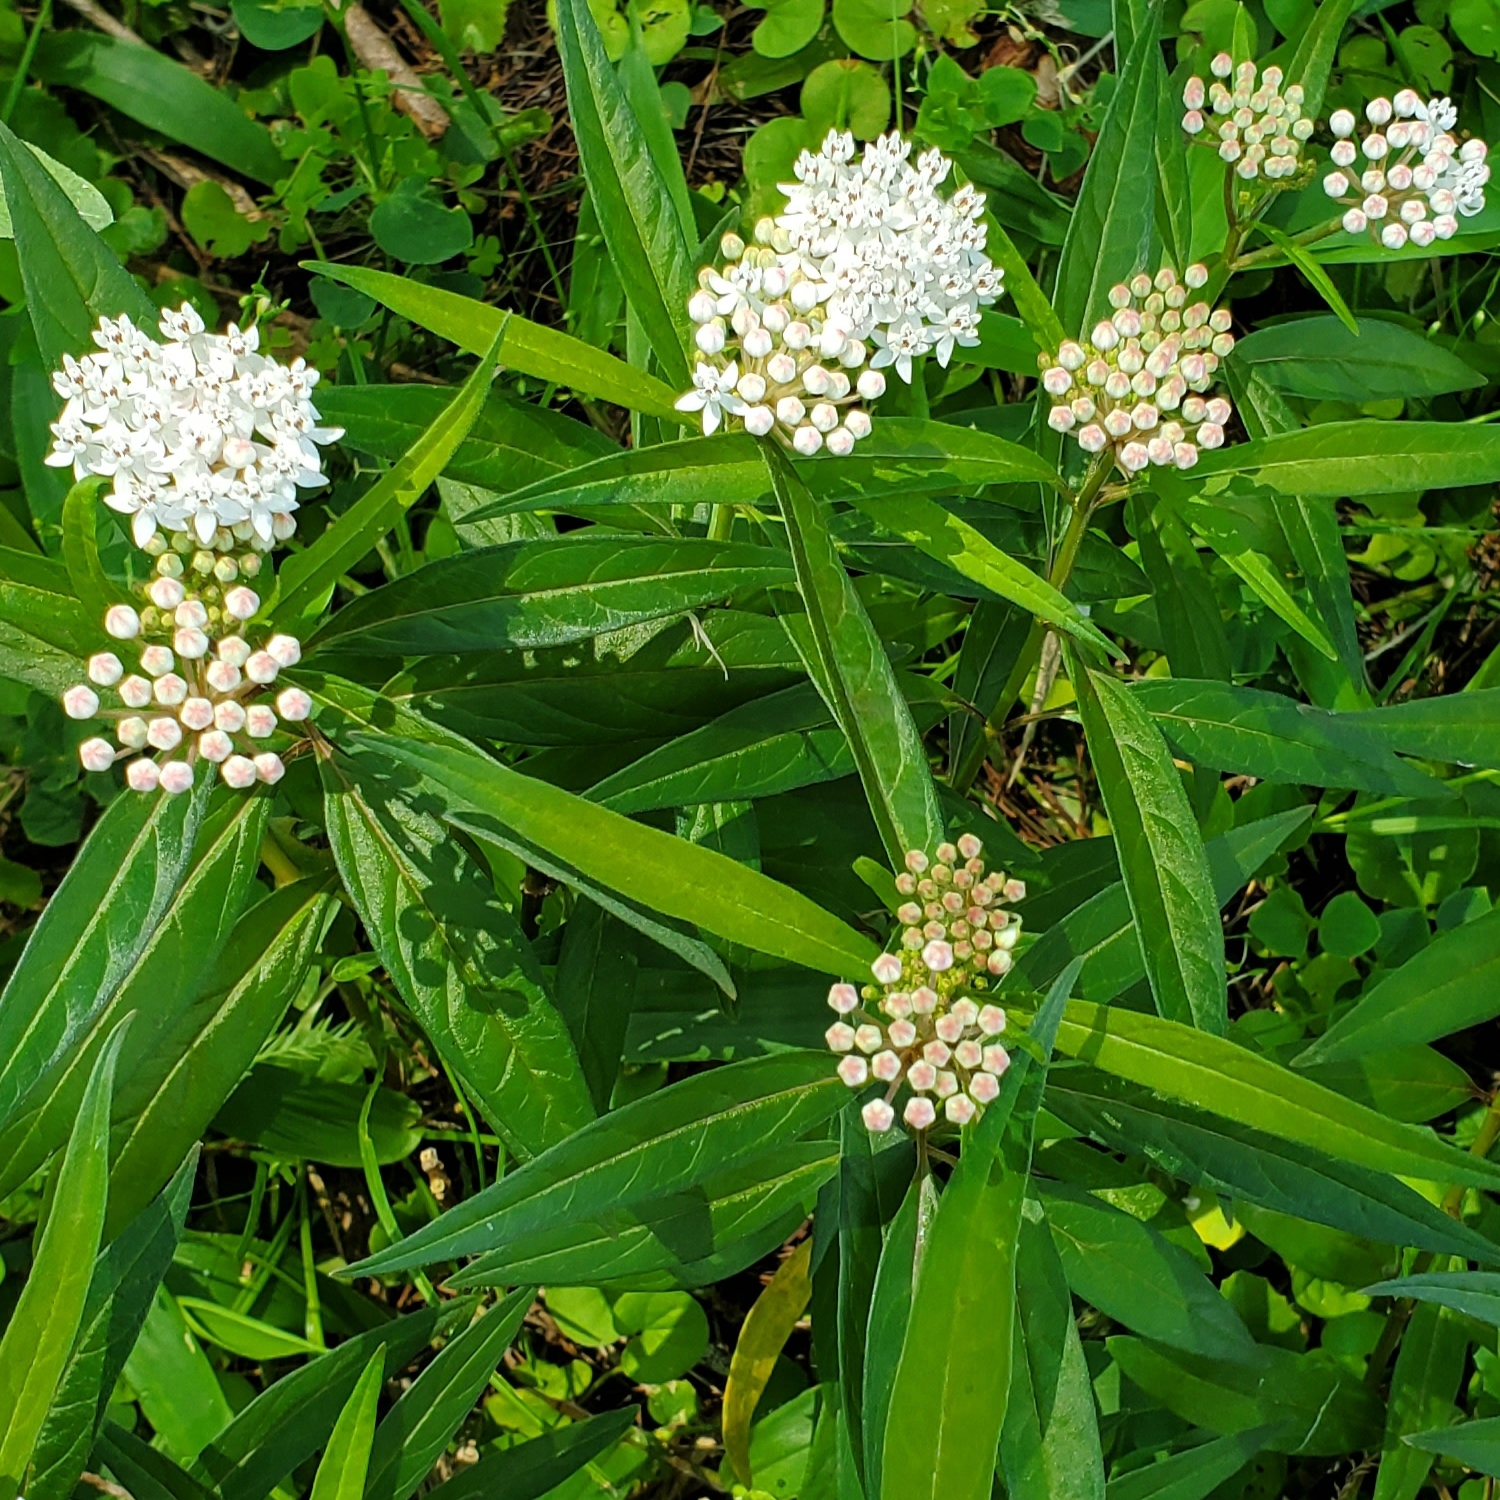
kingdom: Plantae
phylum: Tracheophyta
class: Magnoliopsida
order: Gentianales
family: Apocynaceae
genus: Asclepias
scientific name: Asclepias perennis
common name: Smooth-seed milkweed
